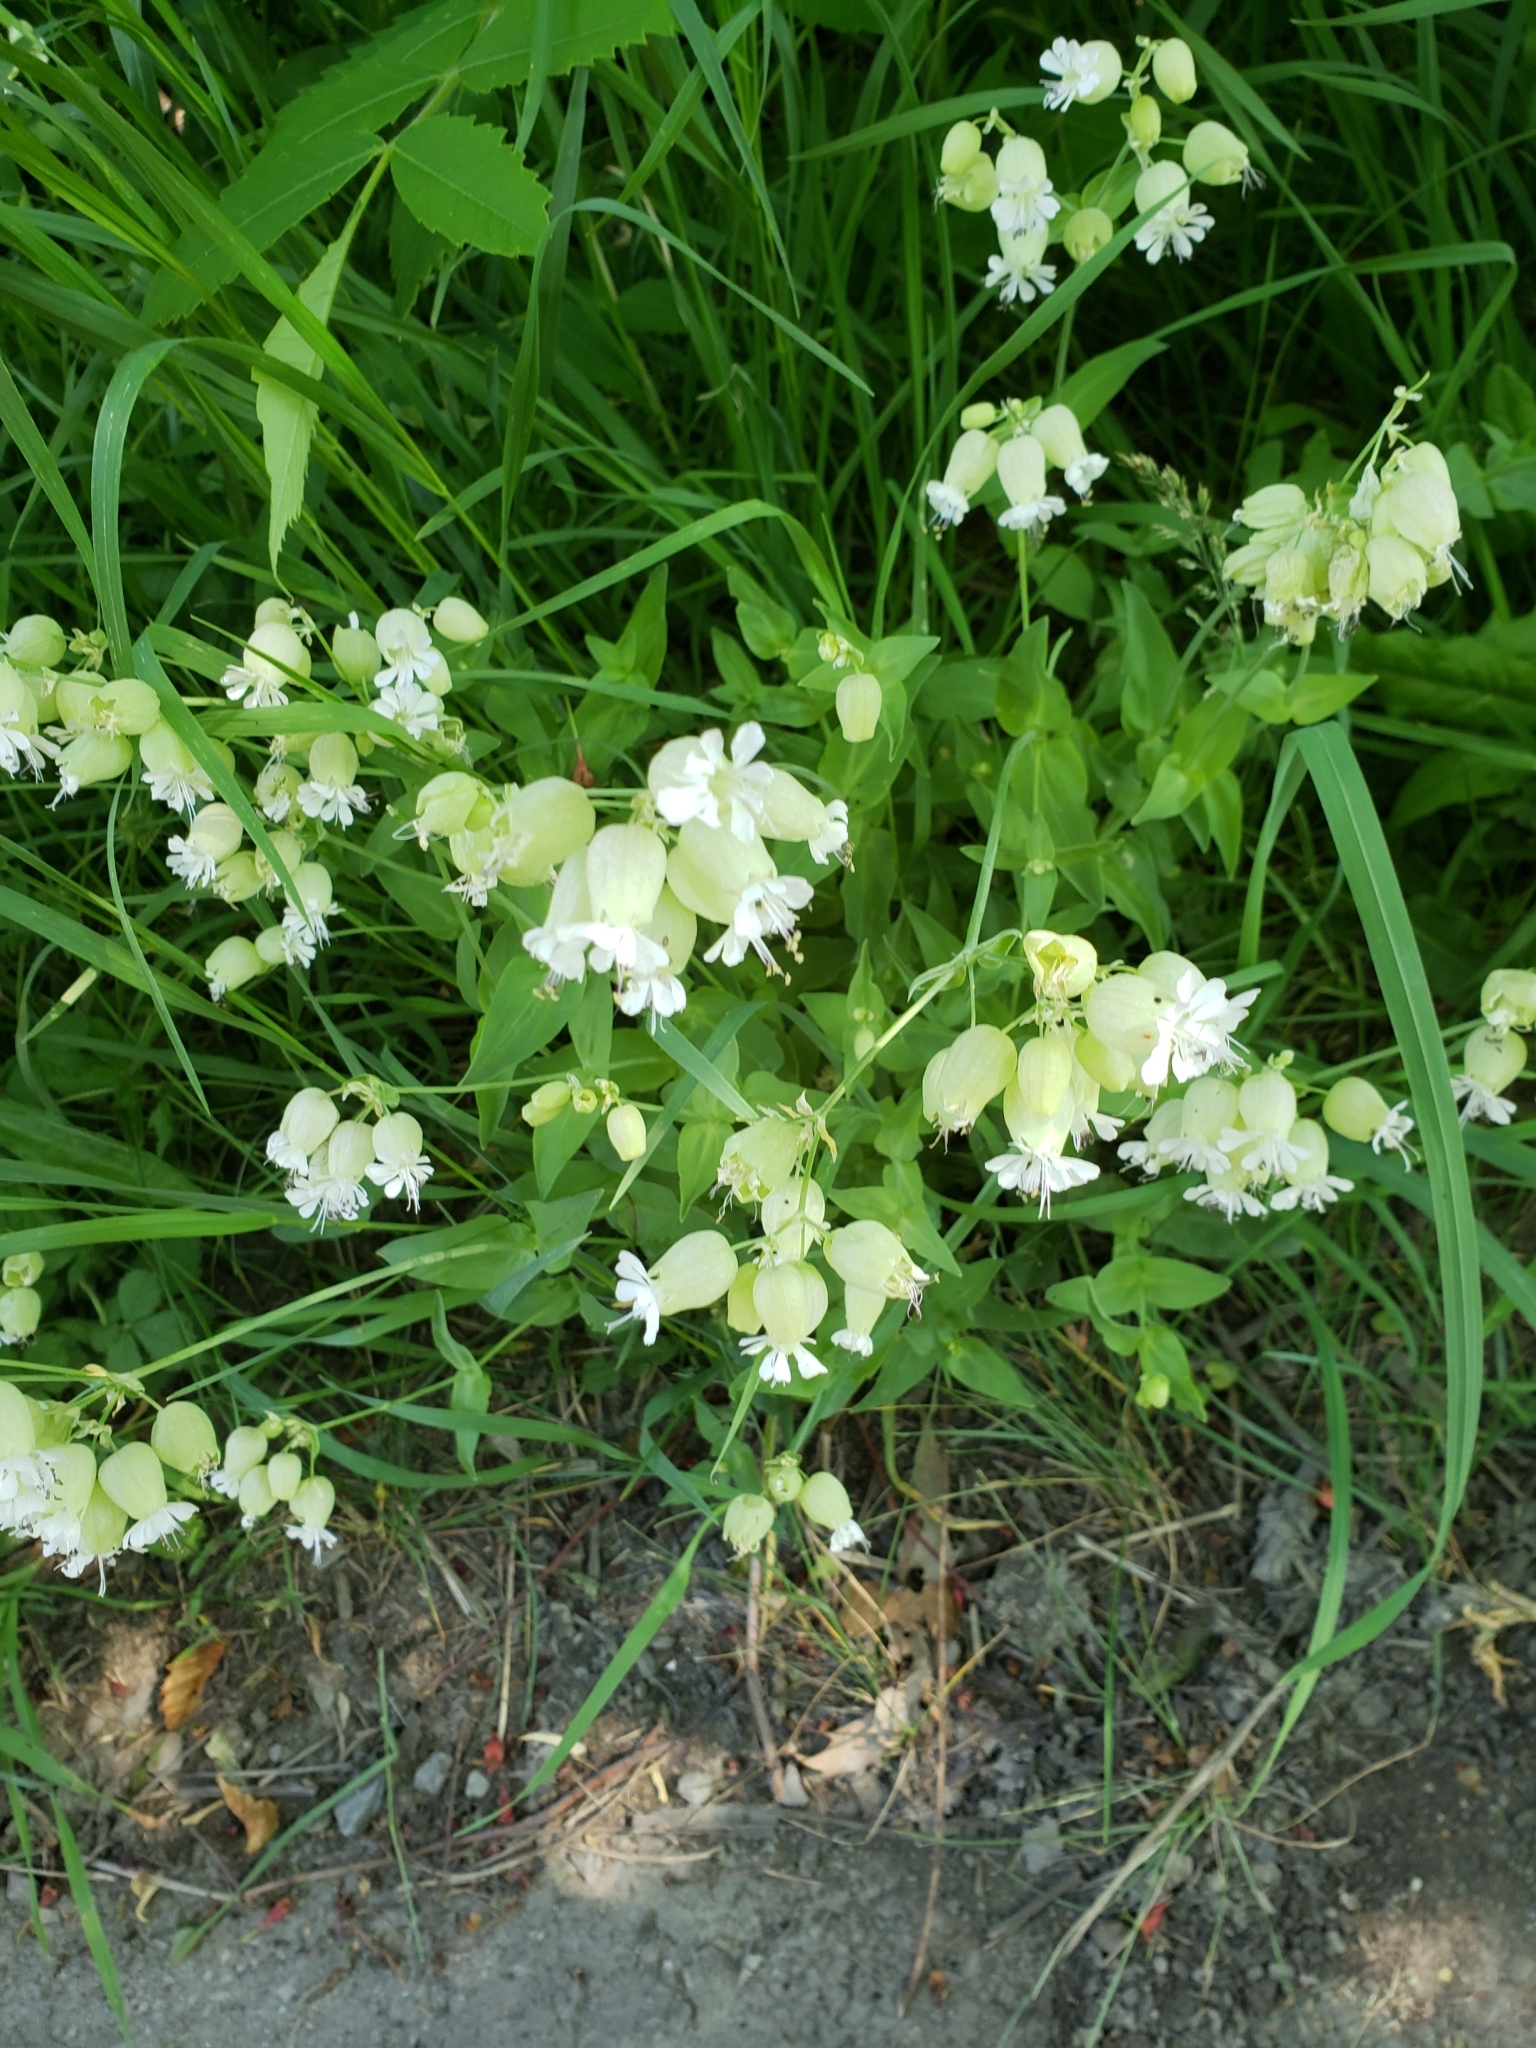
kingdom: Plantae
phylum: Tracheophyta
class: Magnoliopsida
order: Caryophyllales
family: Caryophyllaceae
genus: Silene
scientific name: Silene vulgaris
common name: Bladder campion
